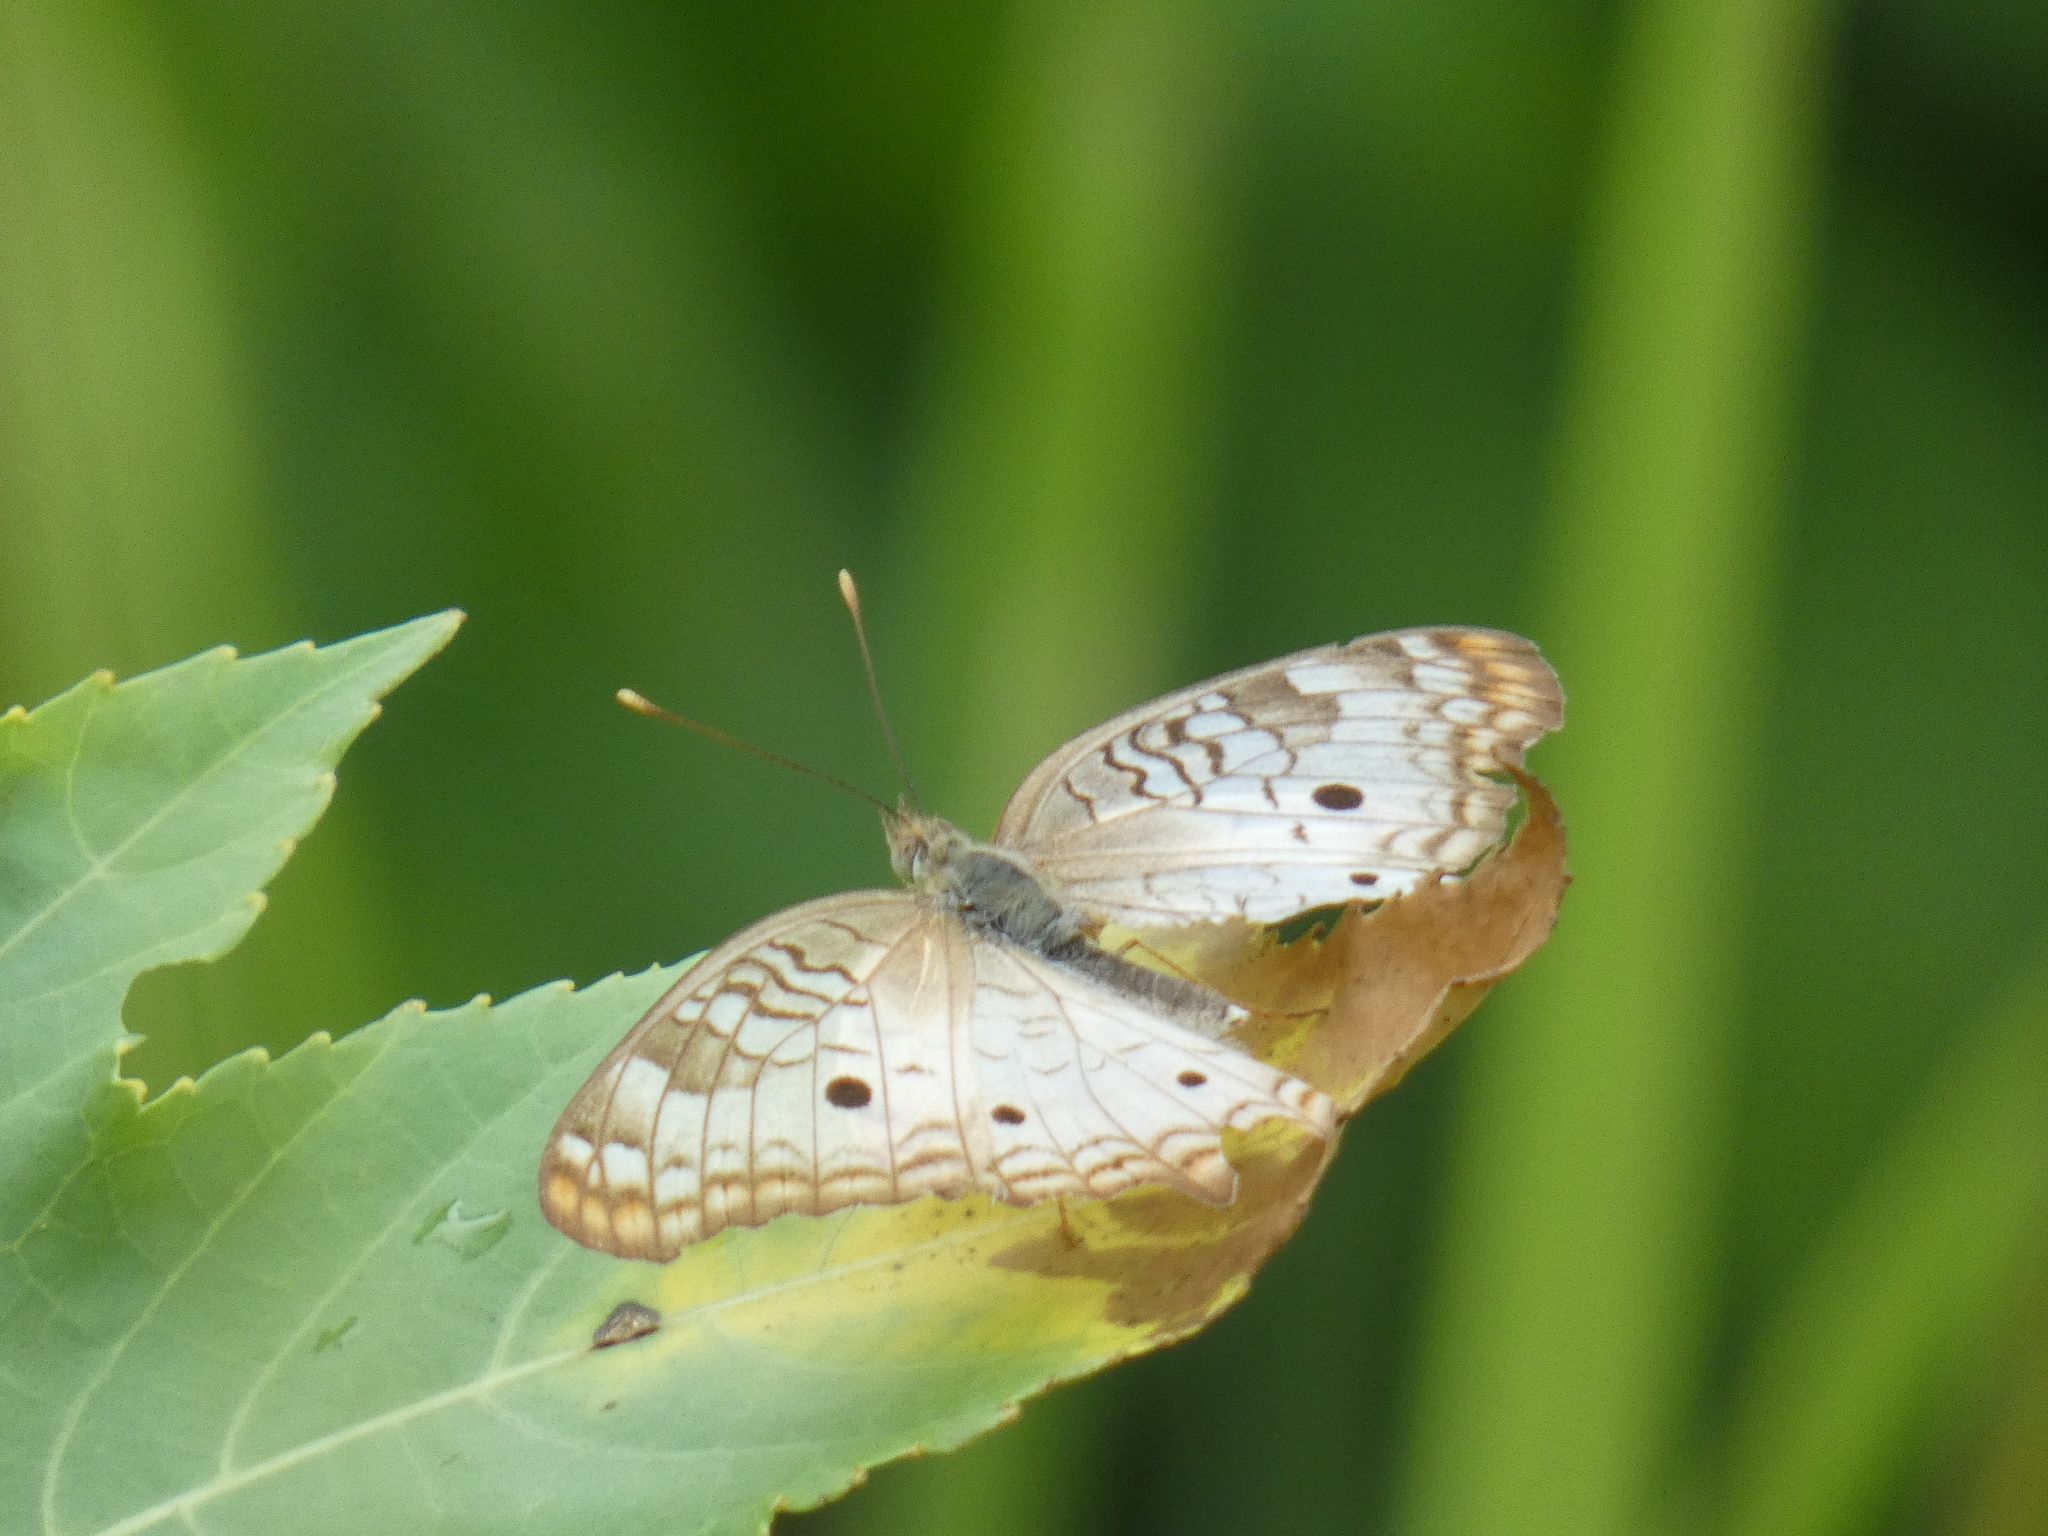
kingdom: Animalia
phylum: Arthropoda
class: Insecta
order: Lepidoptera
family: Nymphalidae
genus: Anartia
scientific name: Anartia jatrophae
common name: White peacock
